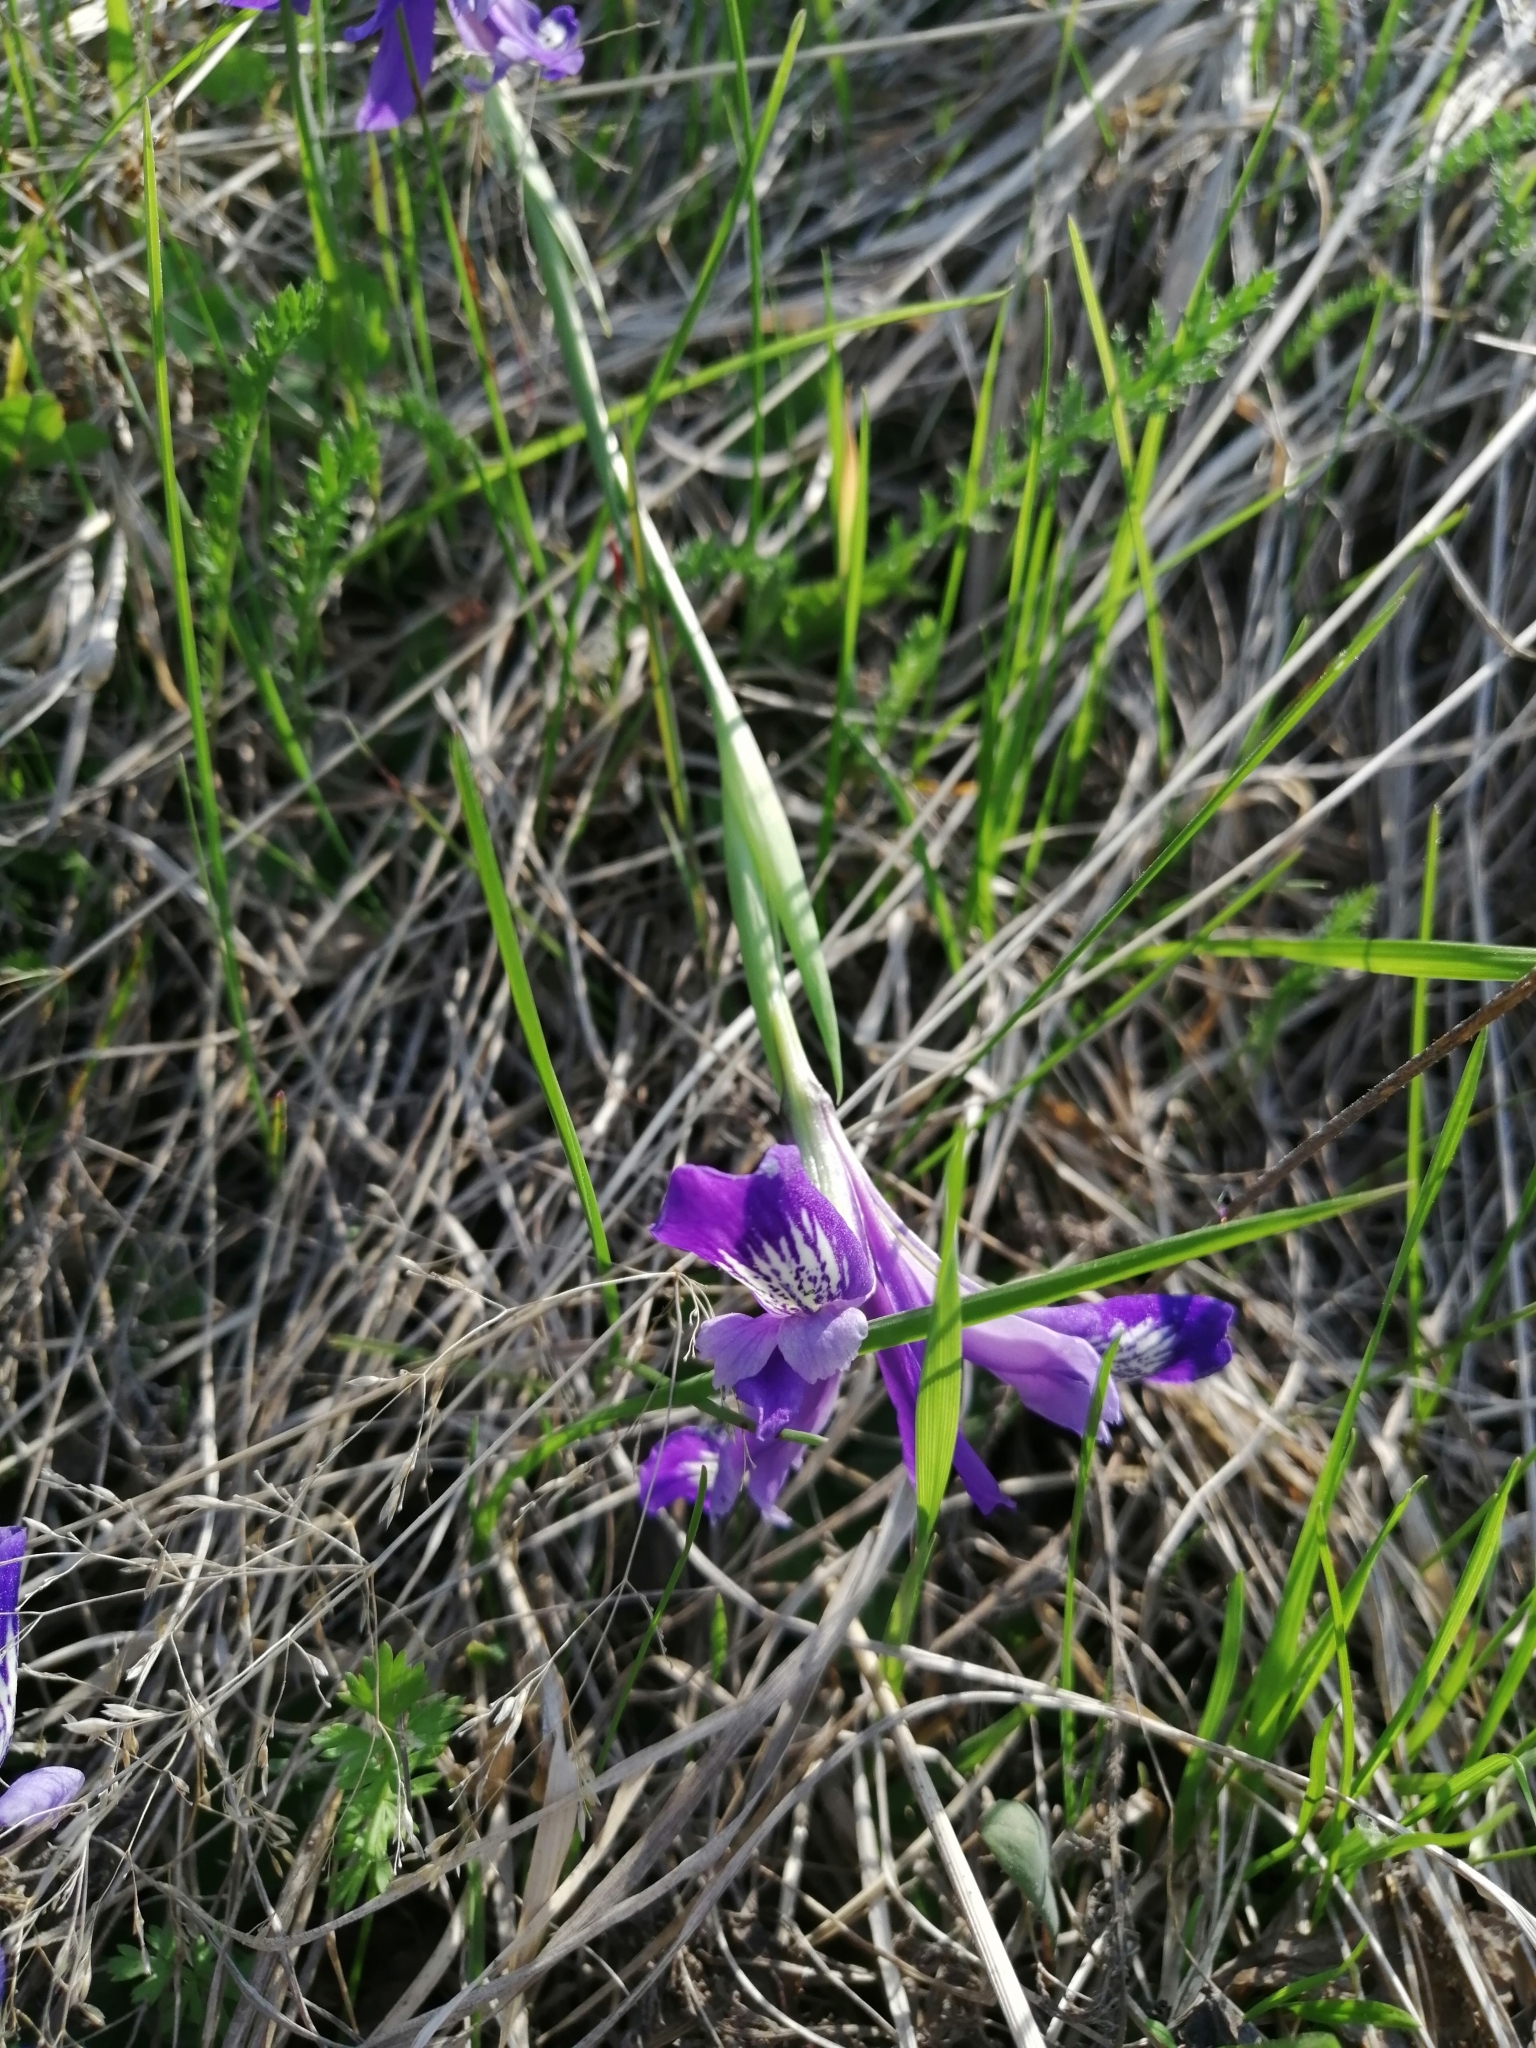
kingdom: Plantae
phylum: Tracheophyta
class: Liliopsida
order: Asparagales
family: Iridaceae
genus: Iris
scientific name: Iris ruthenica
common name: Purple-bract iris
